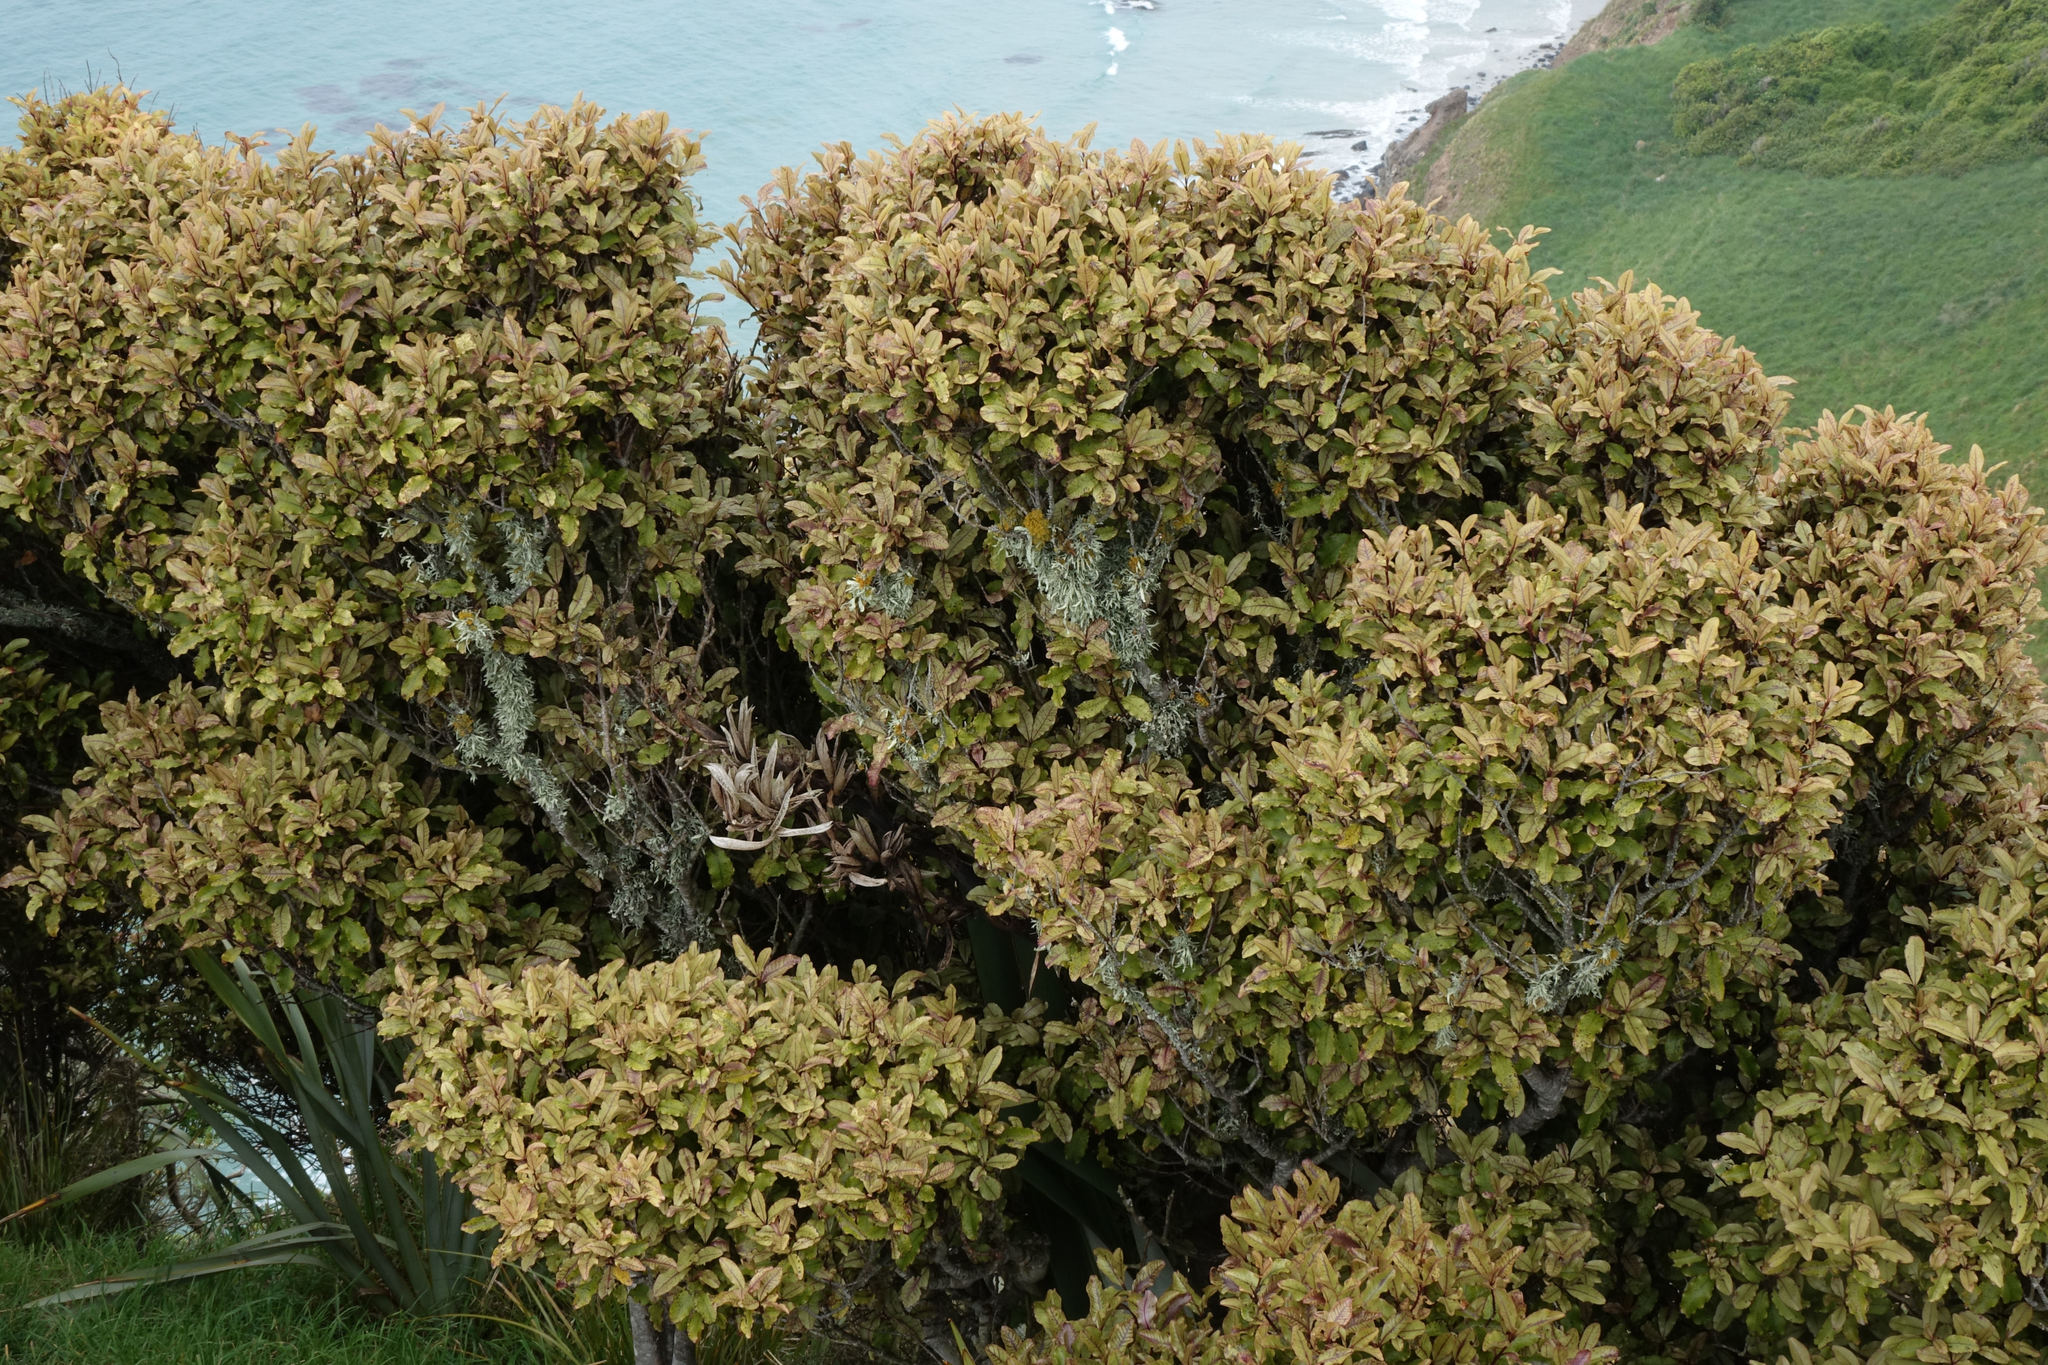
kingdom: Plantae
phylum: Tracheophyta
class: Magnoliopsida
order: Ericales
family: Primulaceae
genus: Myrsine
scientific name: Myrsine australis
